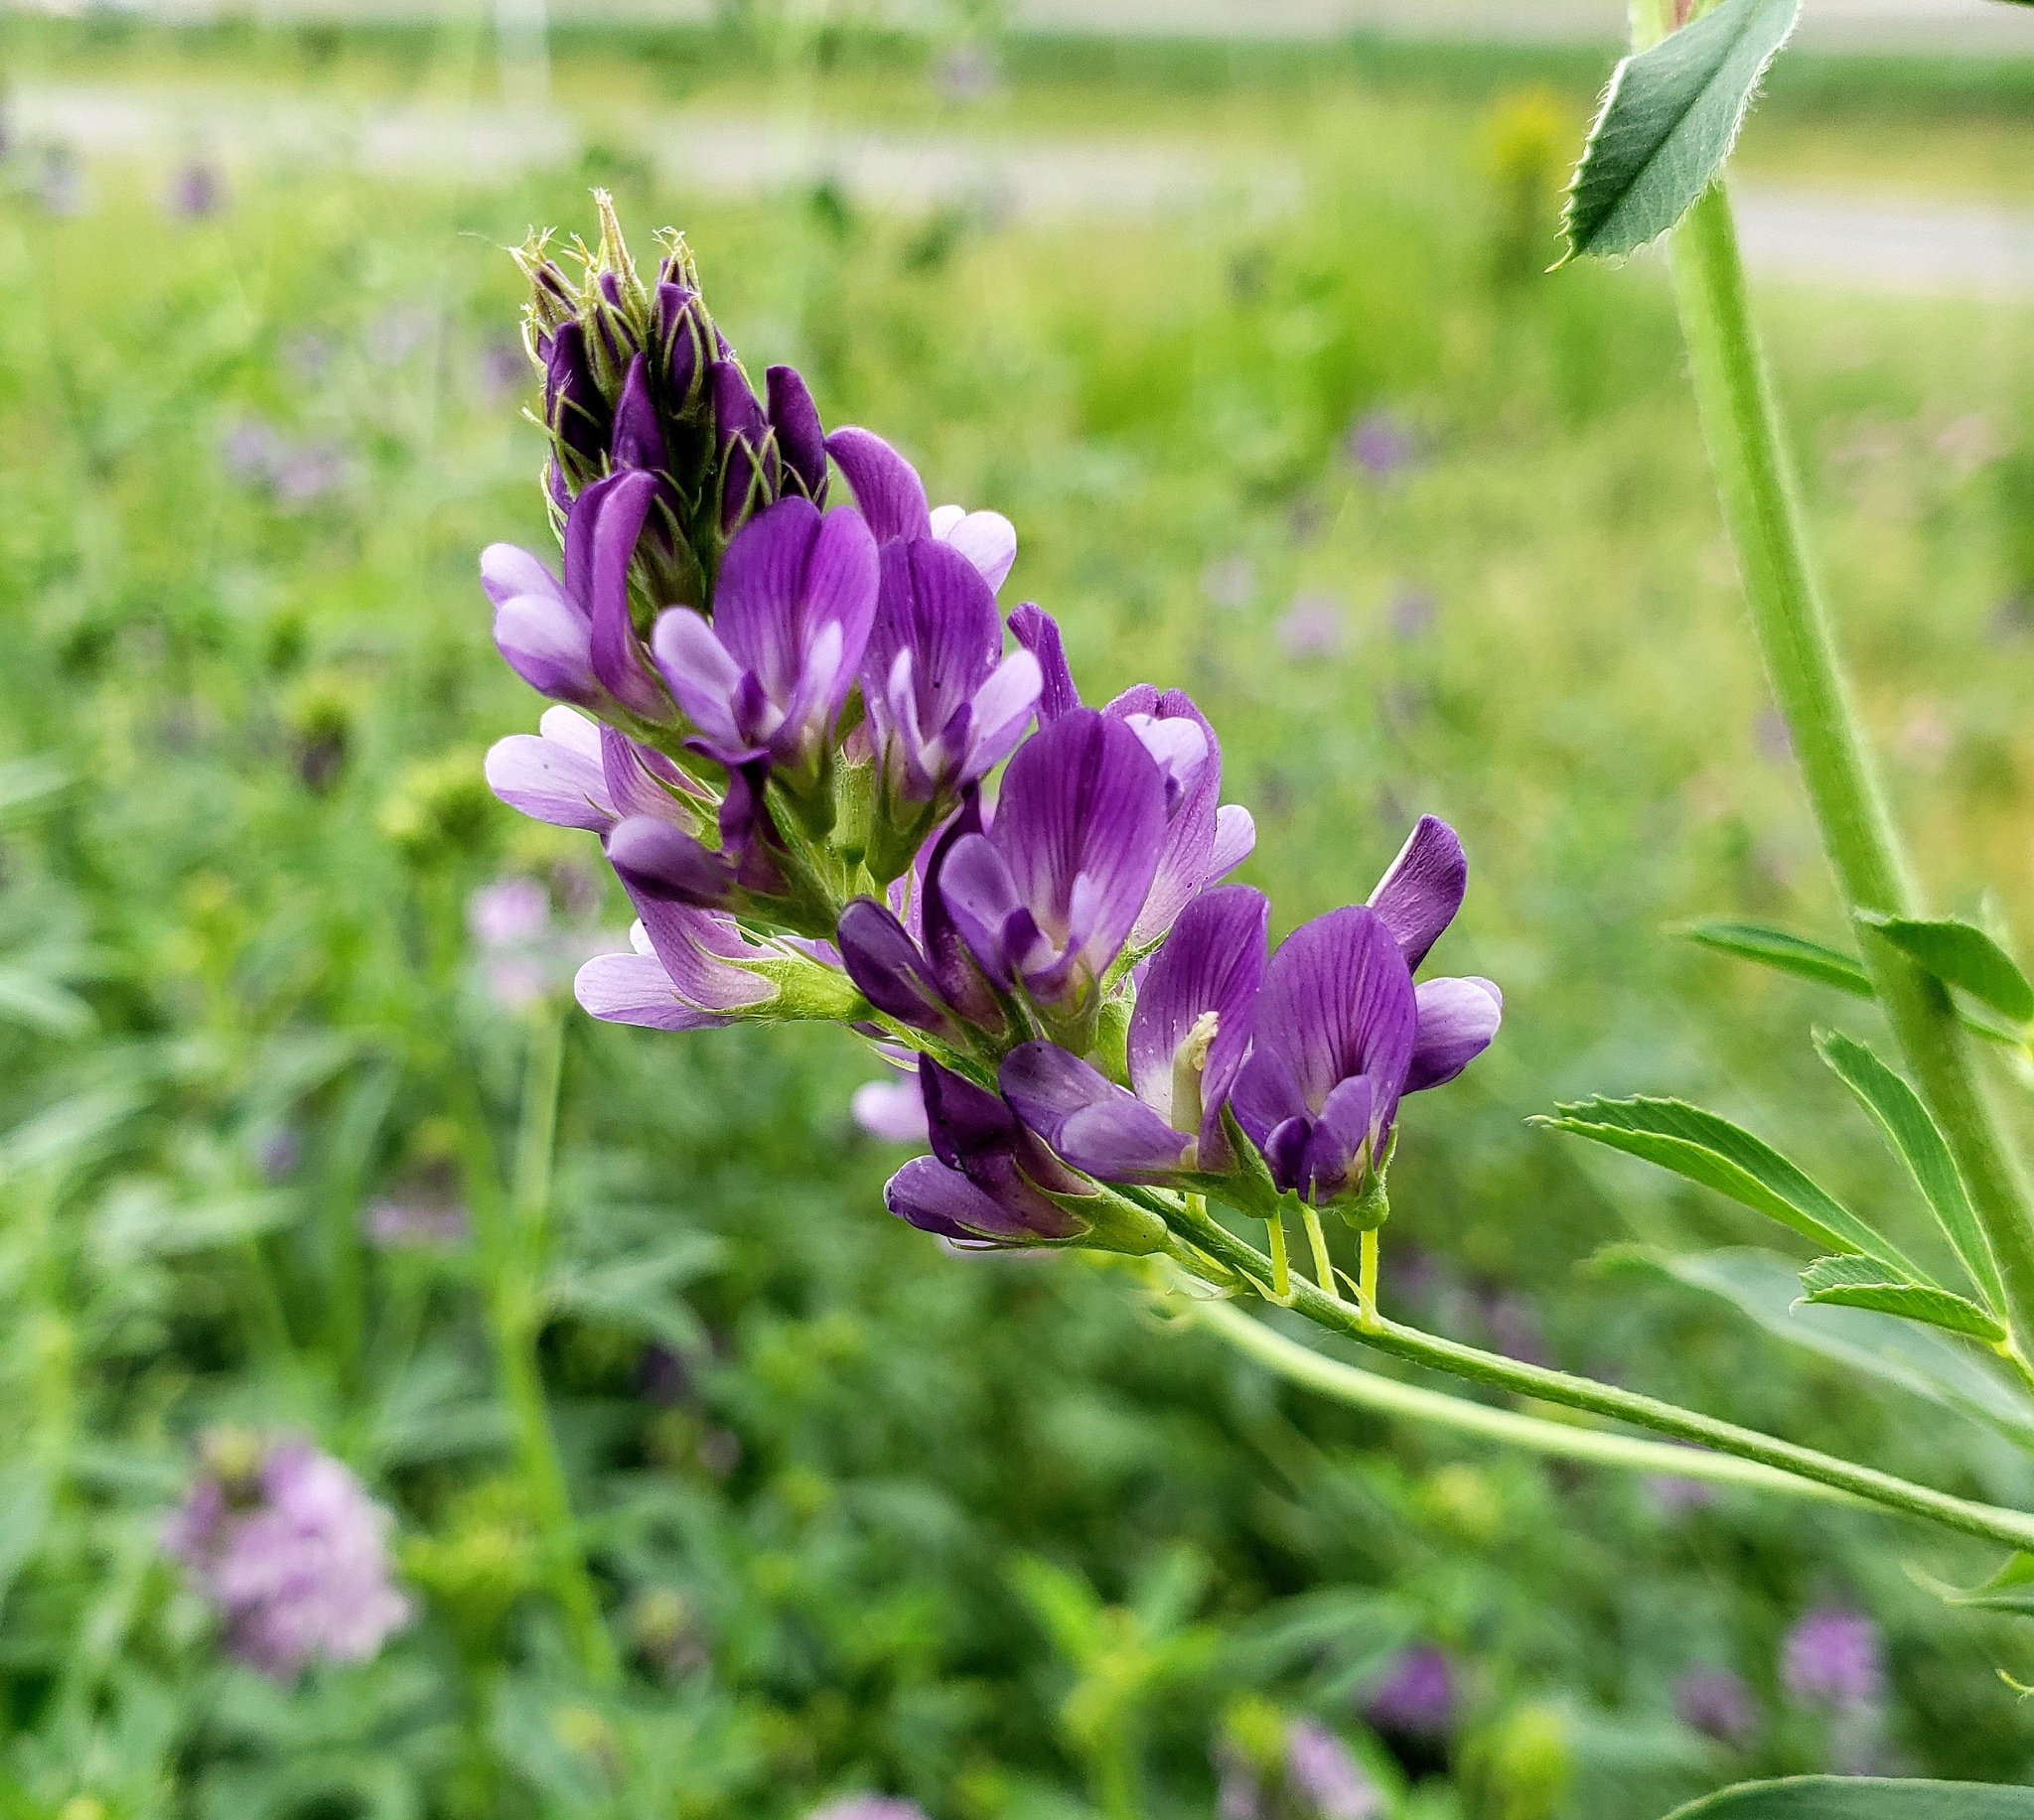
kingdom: Plantae
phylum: Tracheophyta
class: Magnoliopsida
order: Fabales
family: Fabaceae
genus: Medicago
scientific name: Medicago sativa
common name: Alfalfa
